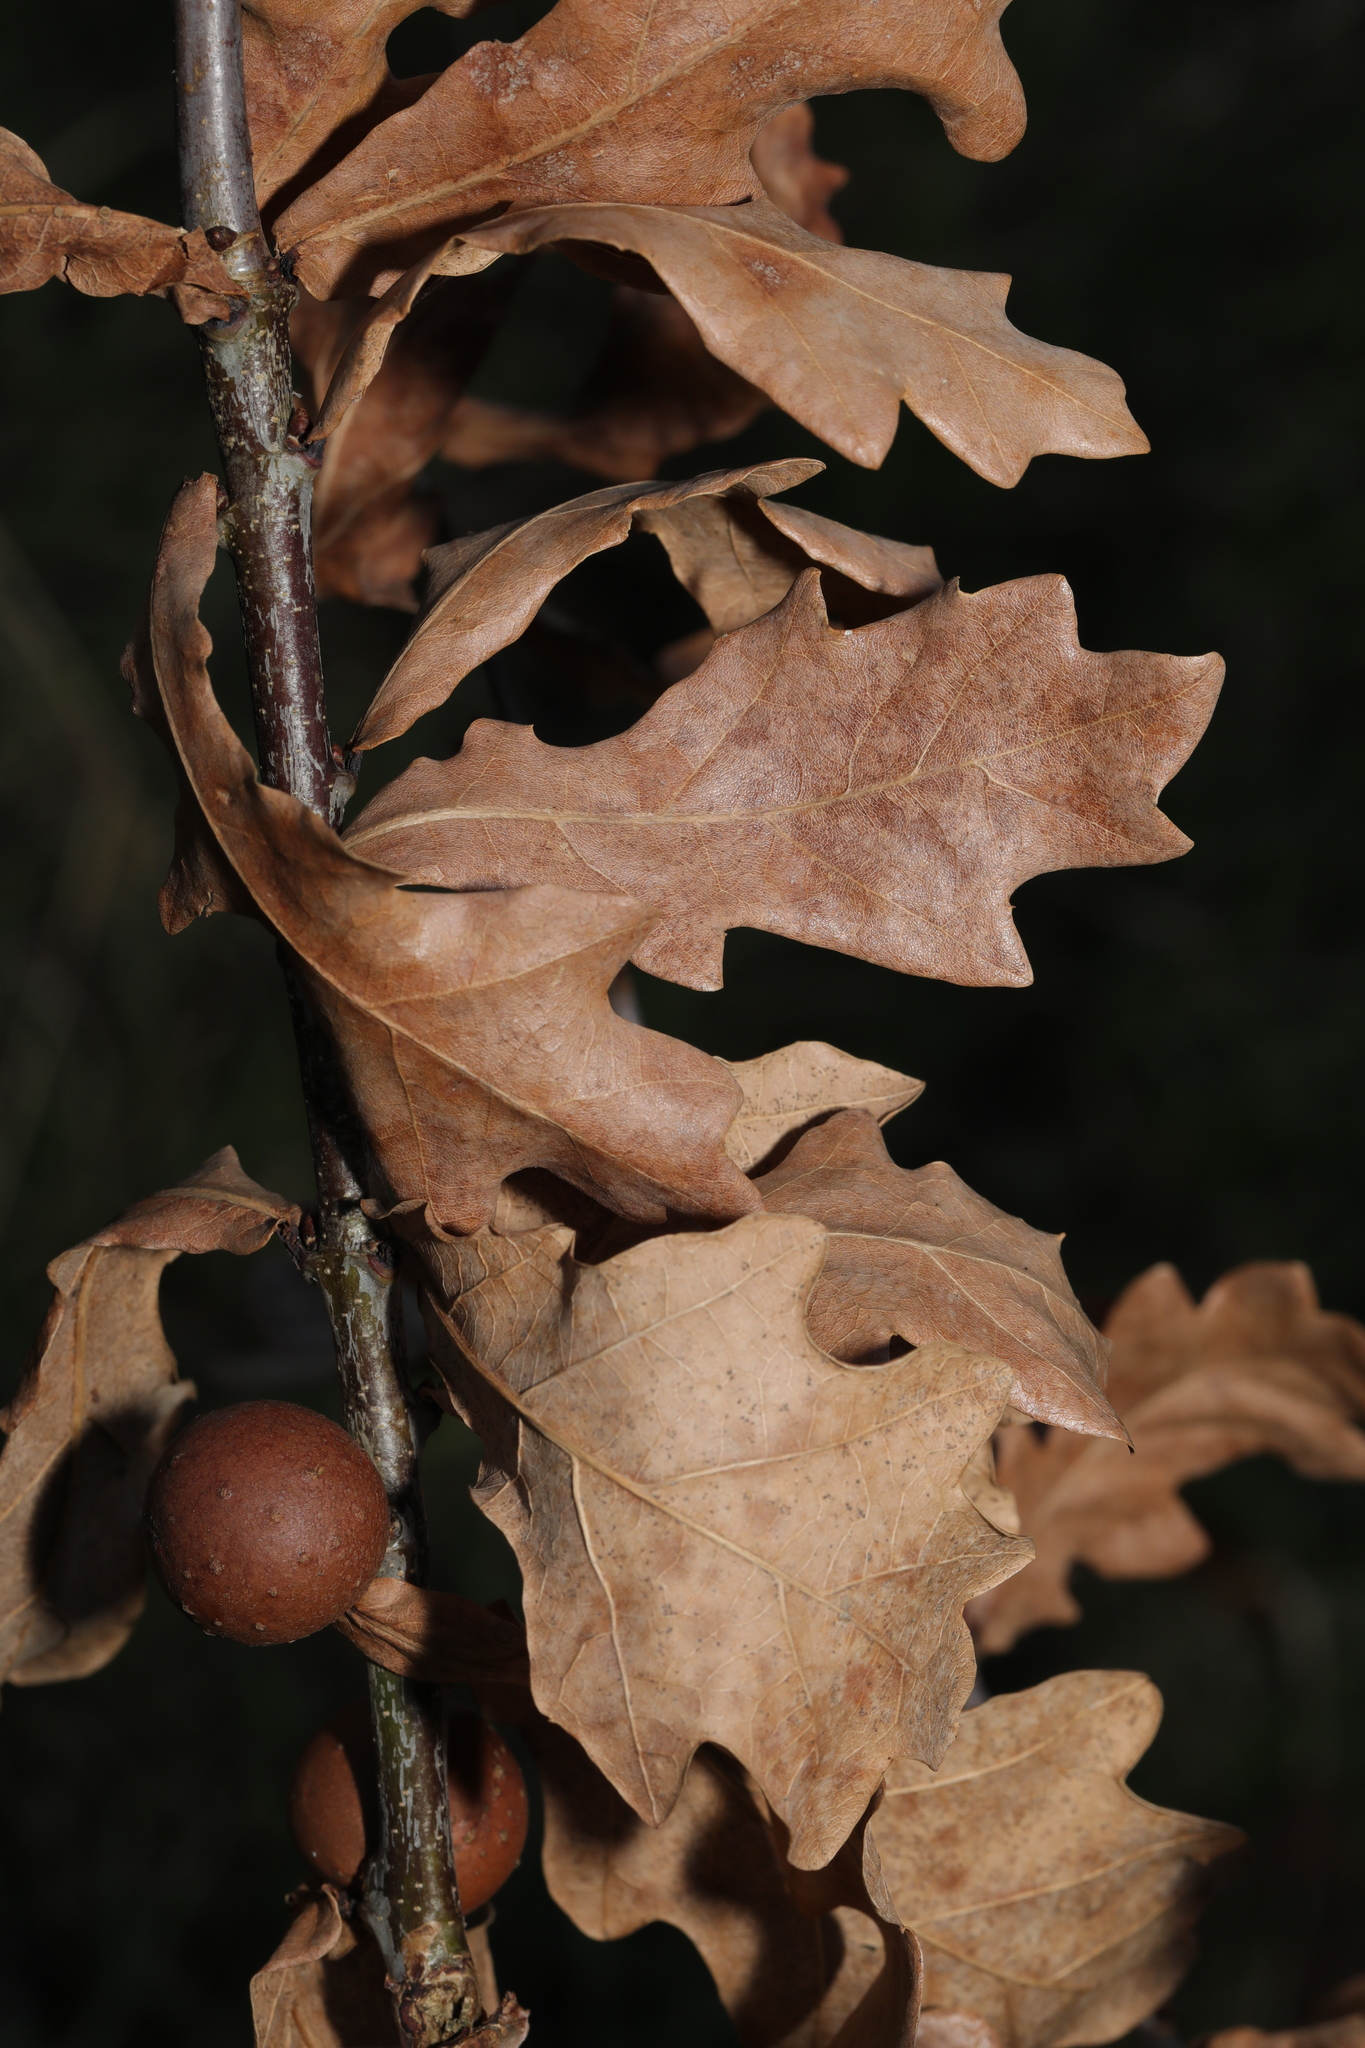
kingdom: Animalia
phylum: Arthropoda
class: Insecta
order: Hymenoptera
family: Cynipidae
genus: Andricus
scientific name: Andricus kollari
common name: Marble gall
